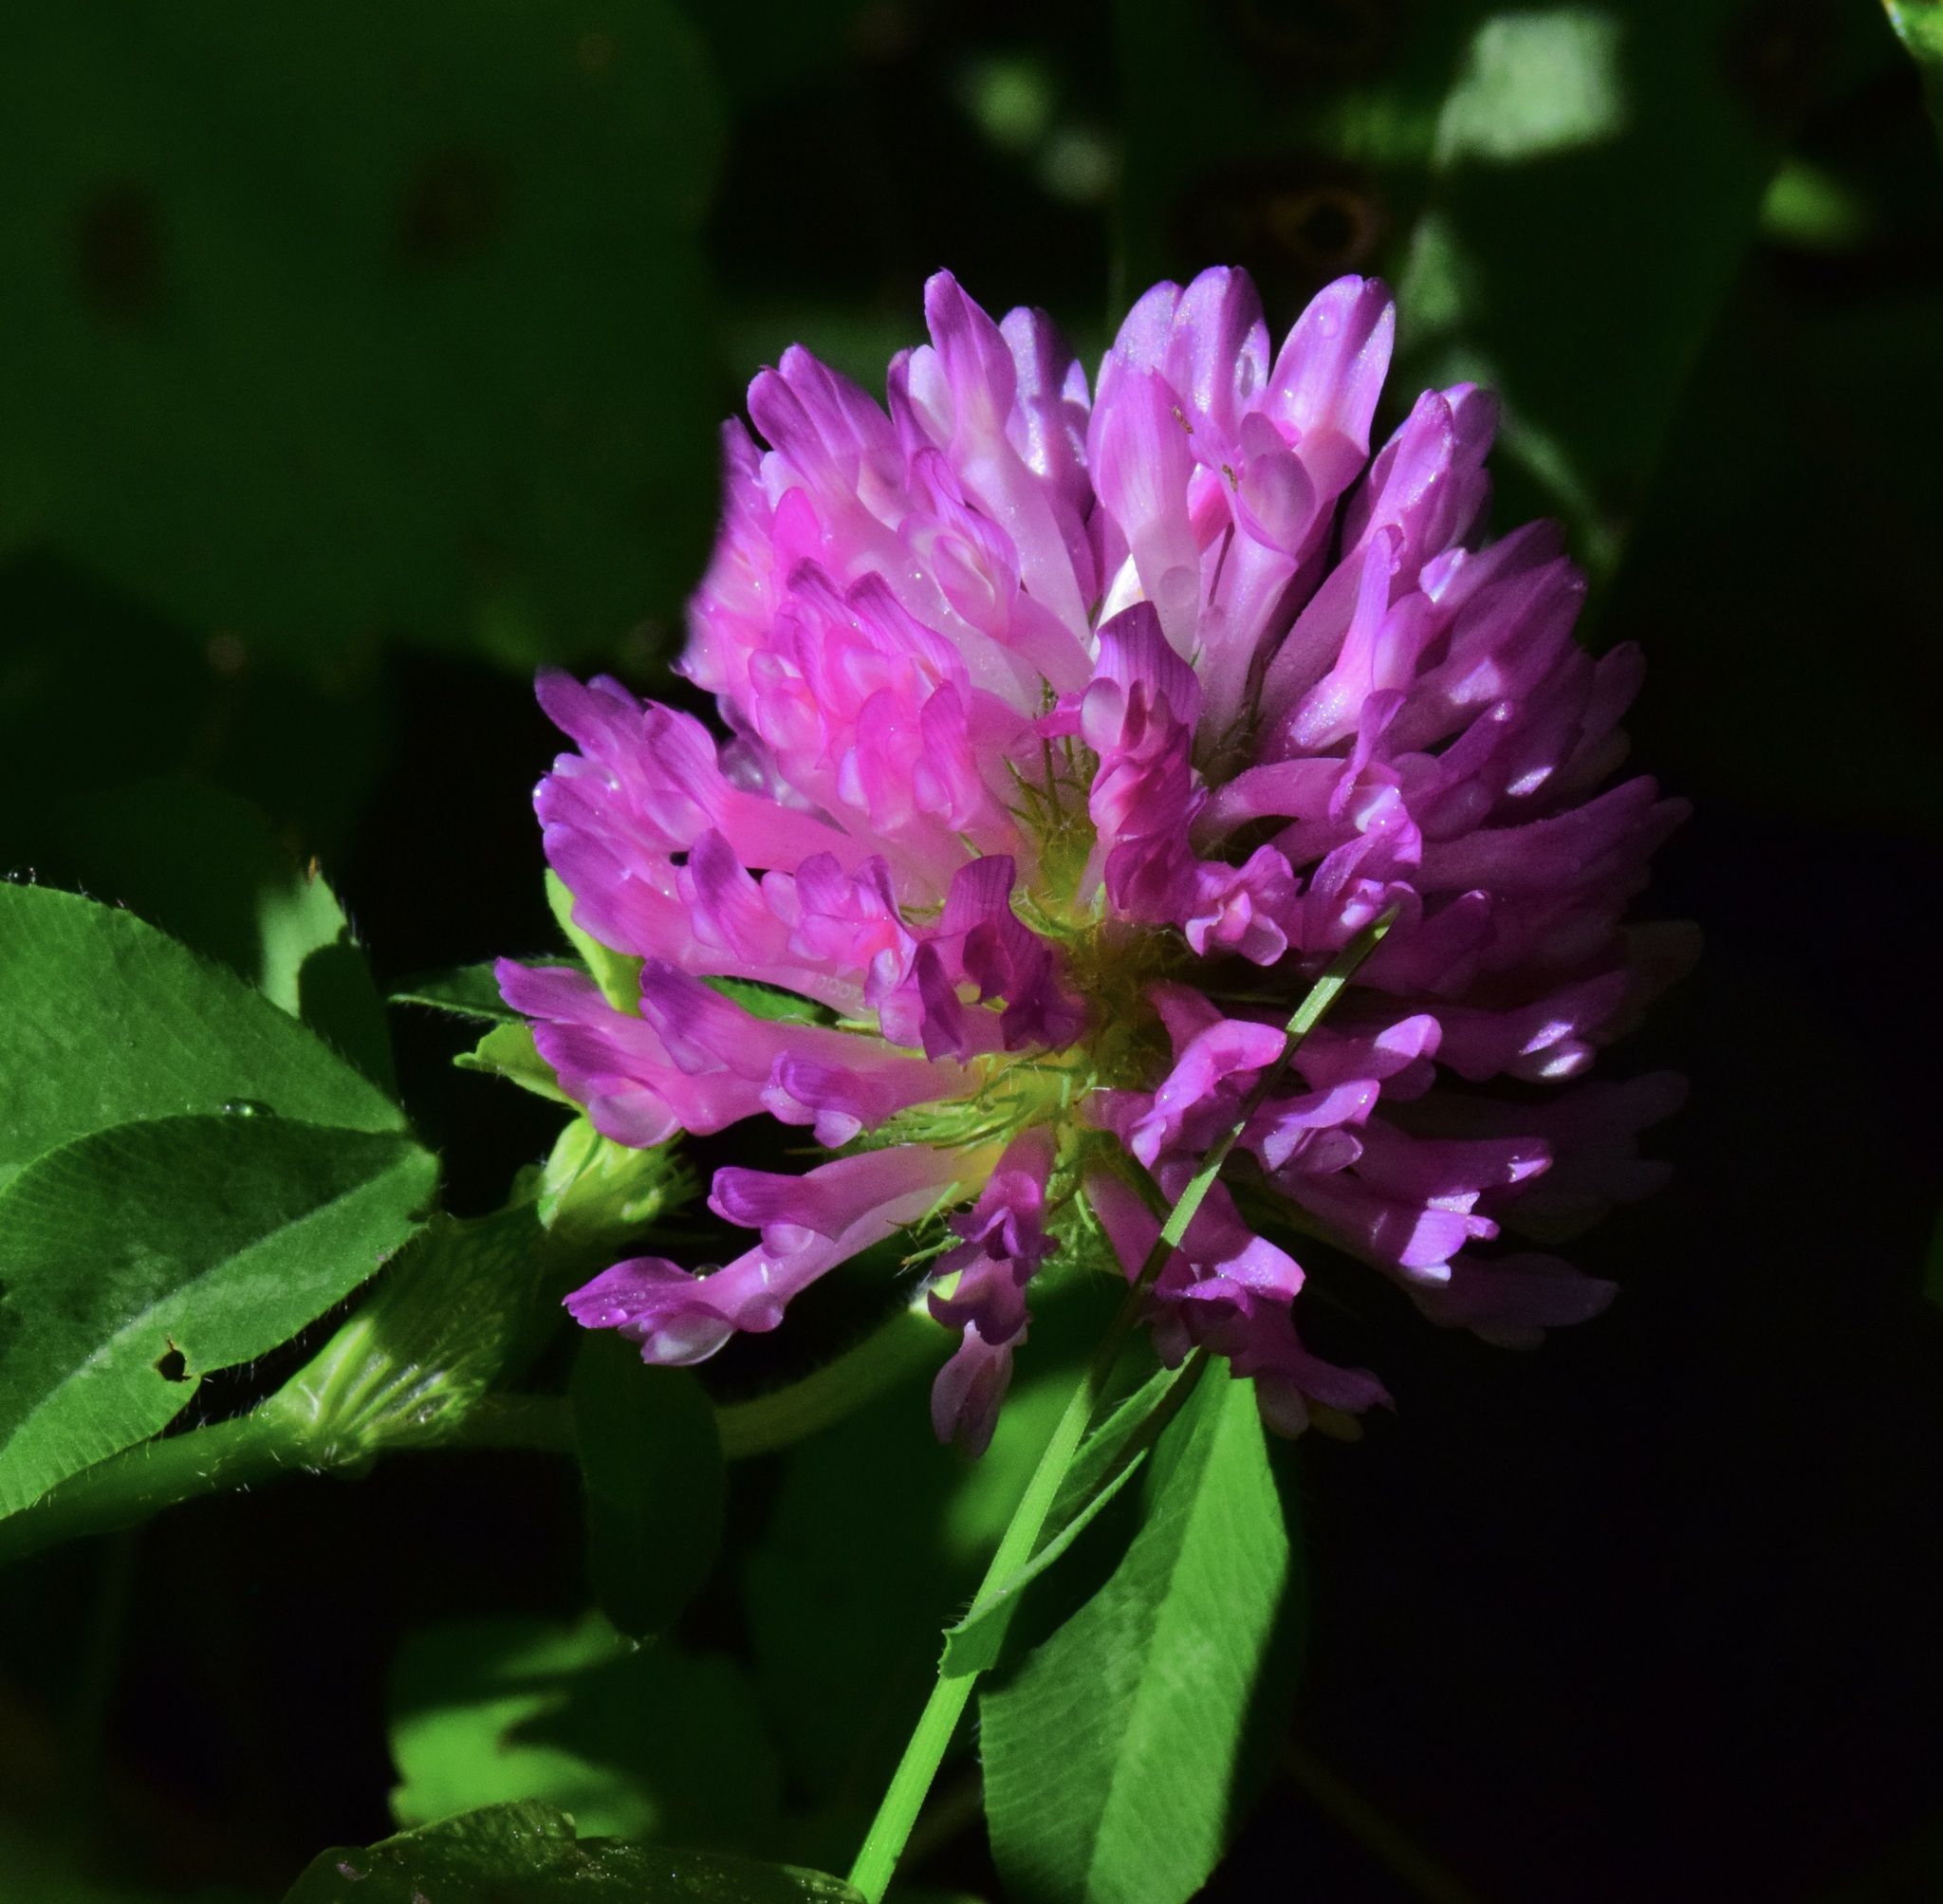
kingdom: Plantae
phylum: Tracheophyta
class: Magnoliopsida
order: Fabales
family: Fabaceae
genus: Trifolium
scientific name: Trifolium pratense
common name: Red clover
